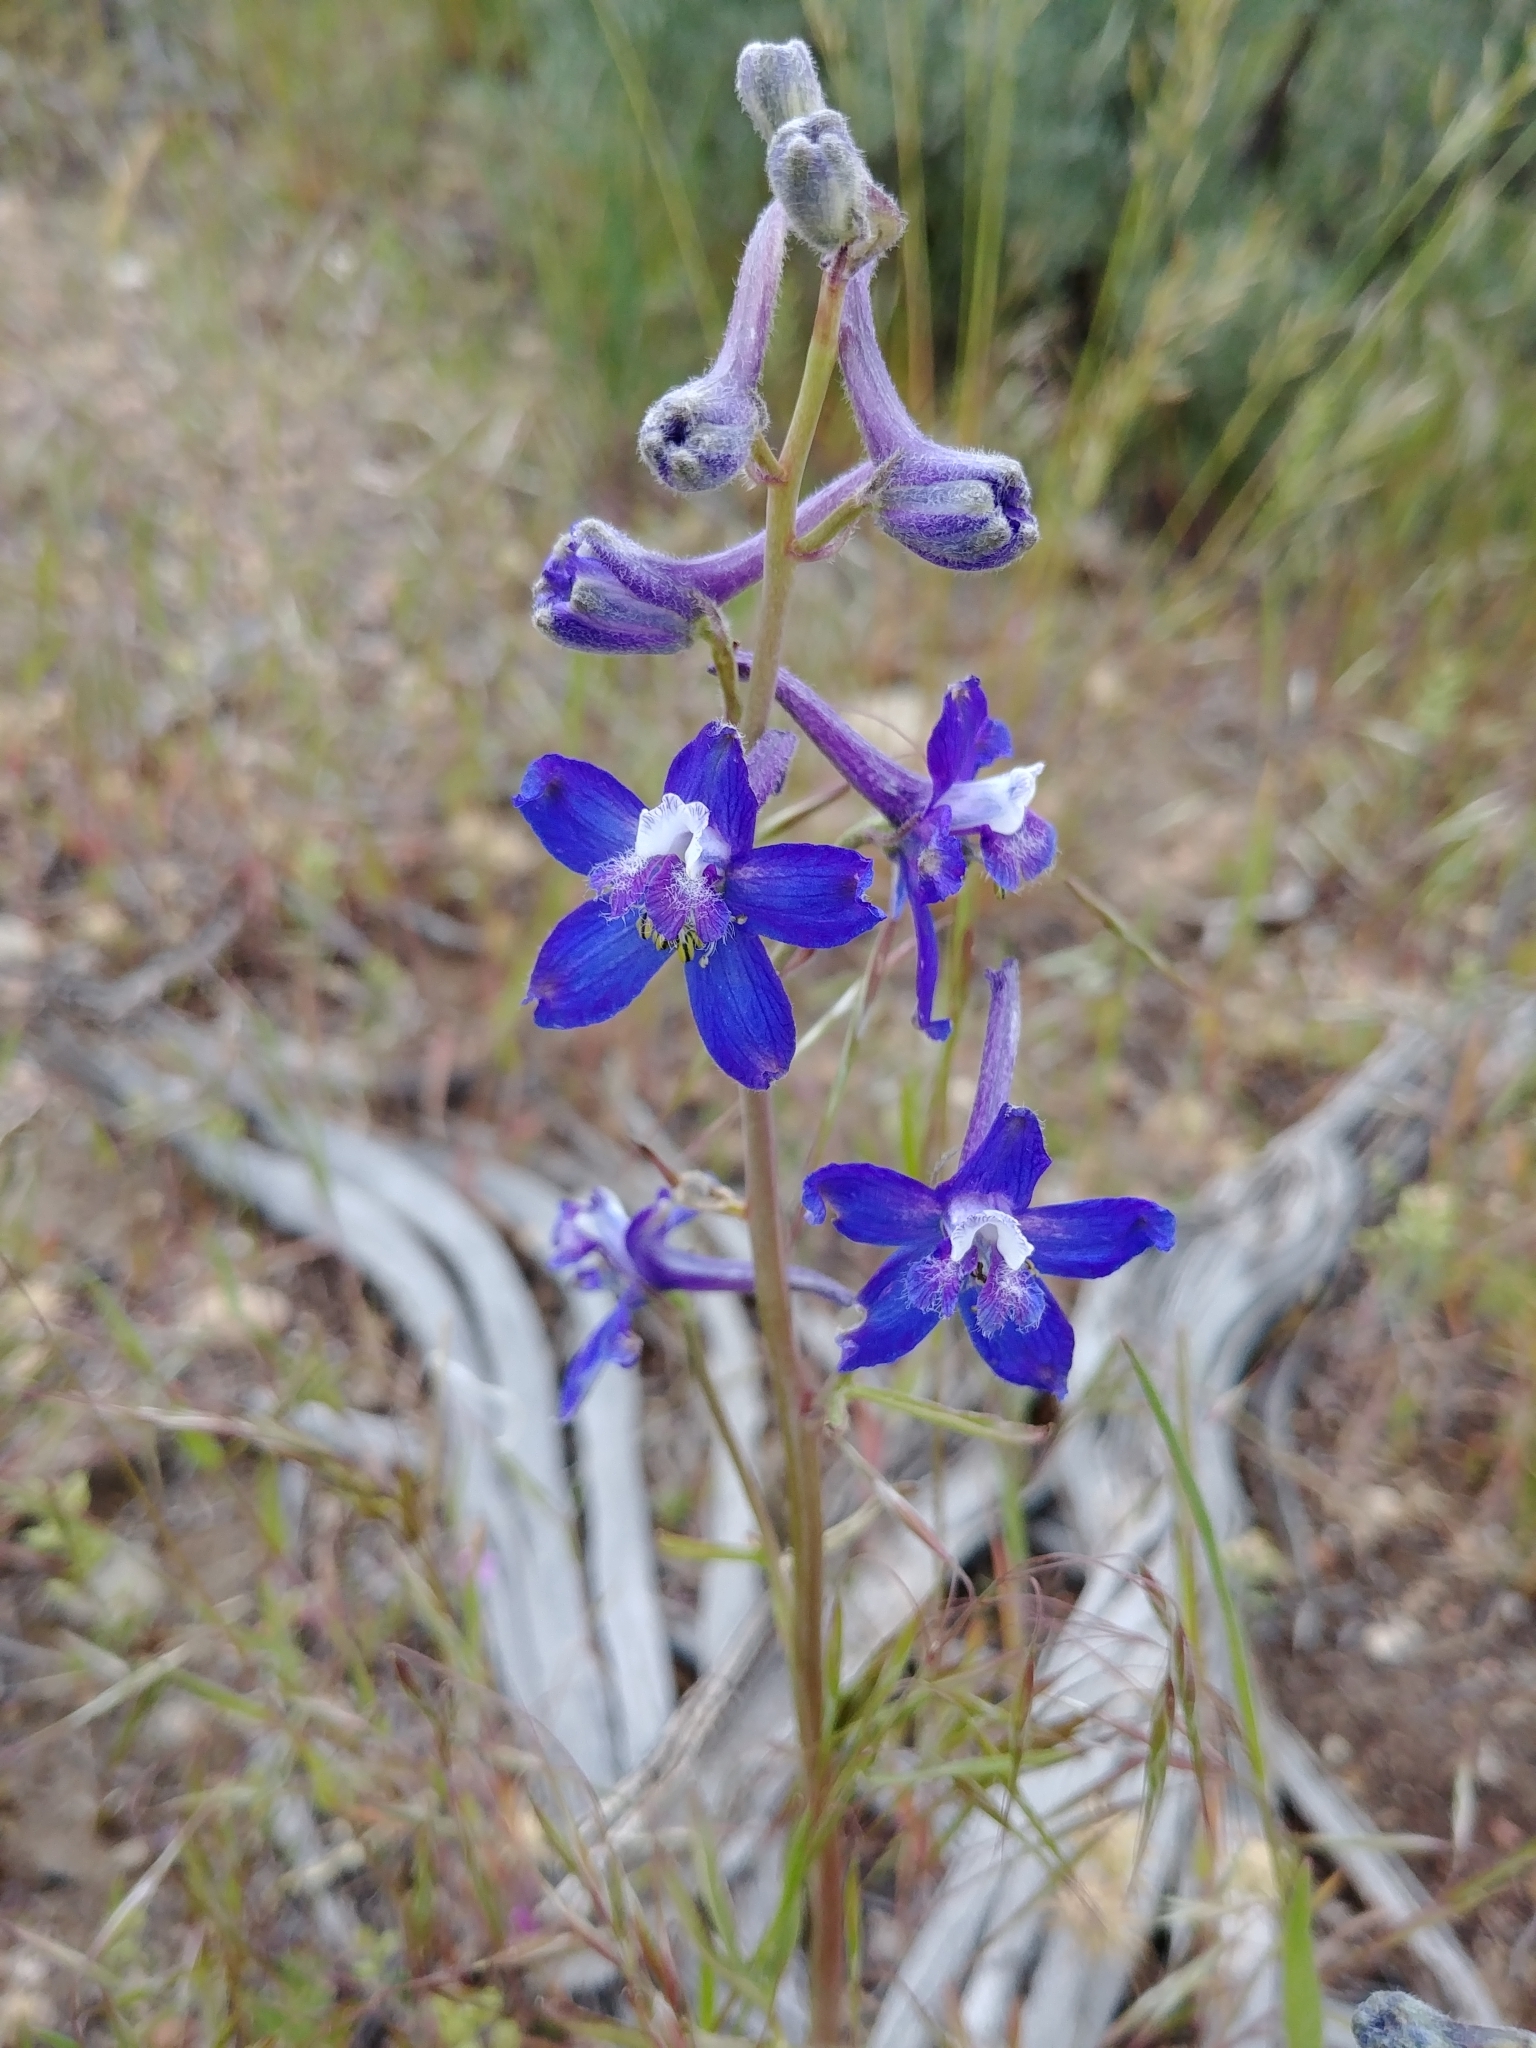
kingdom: Plantae
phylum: Tracheophyta
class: Magnoliopsida
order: Ranunculales
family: Ranunculaceae
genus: Delphinium
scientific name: Delphinium nuttallianum
